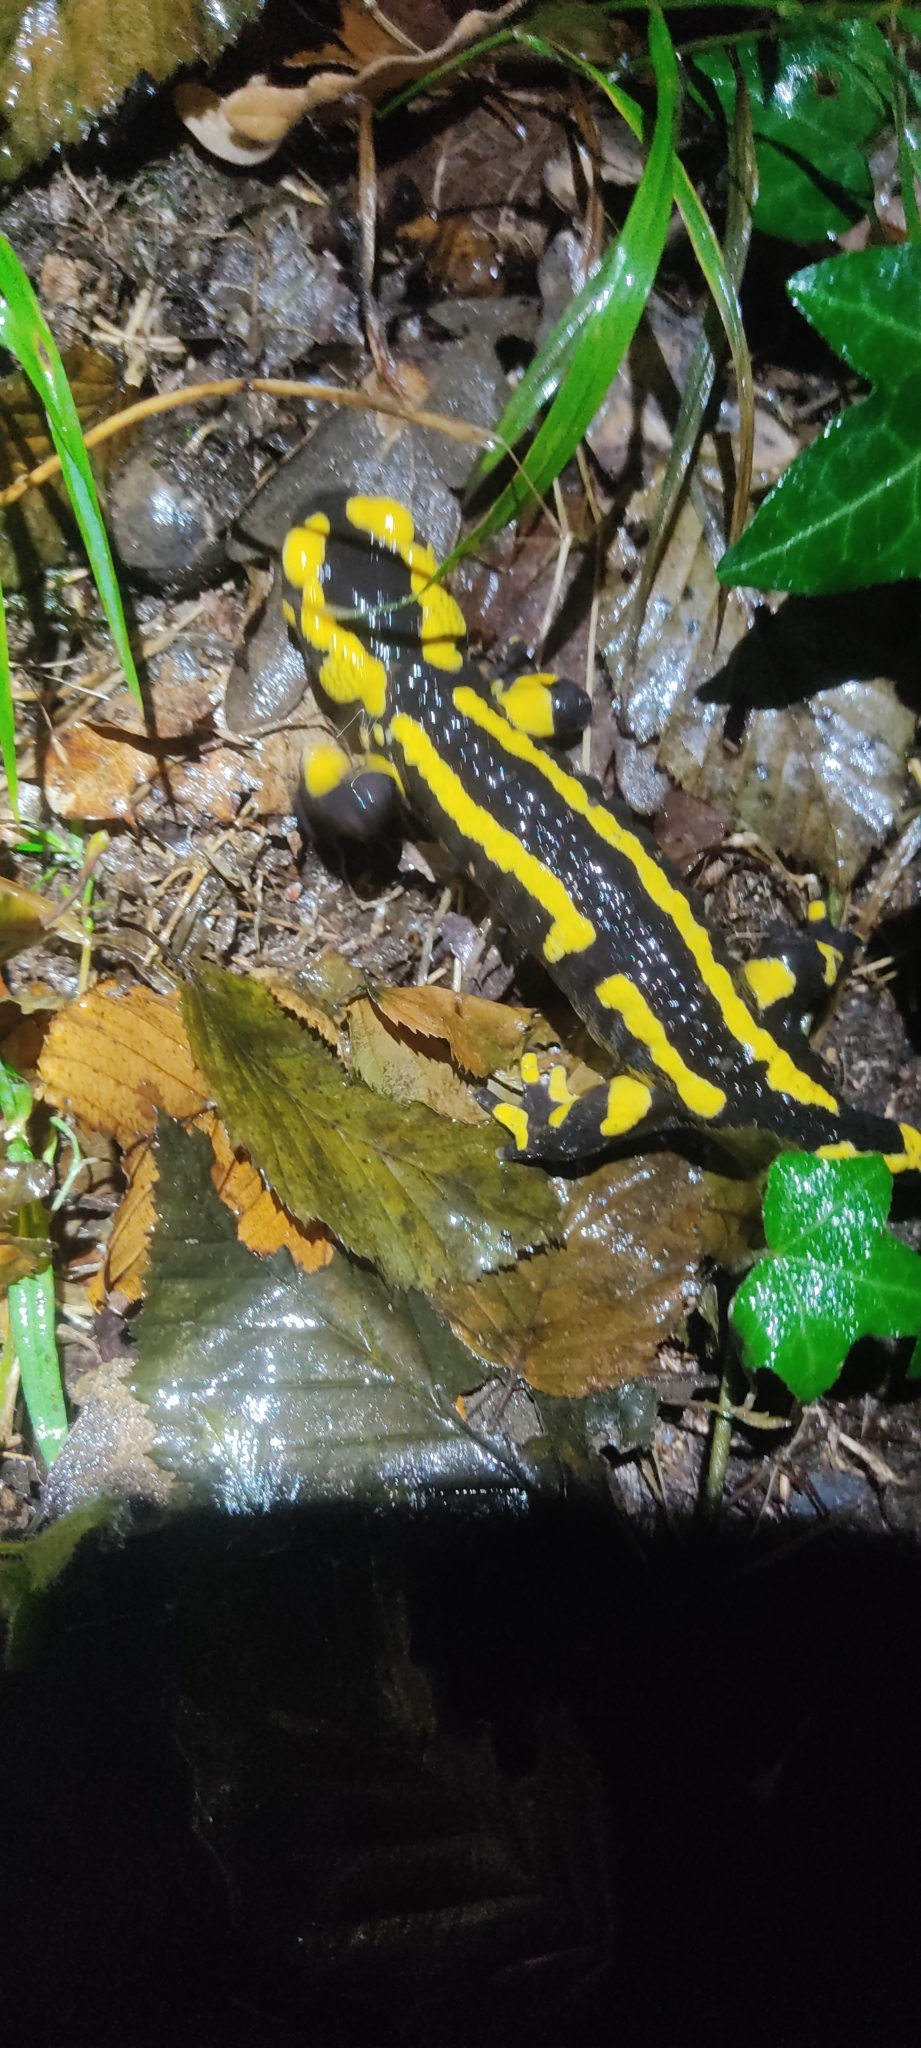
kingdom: Animalia
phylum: Chordata
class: Amphibia
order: Caudata
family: Salamandridae
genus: Salamandra
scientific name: Salamandra salamandra
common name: Fire salamander
